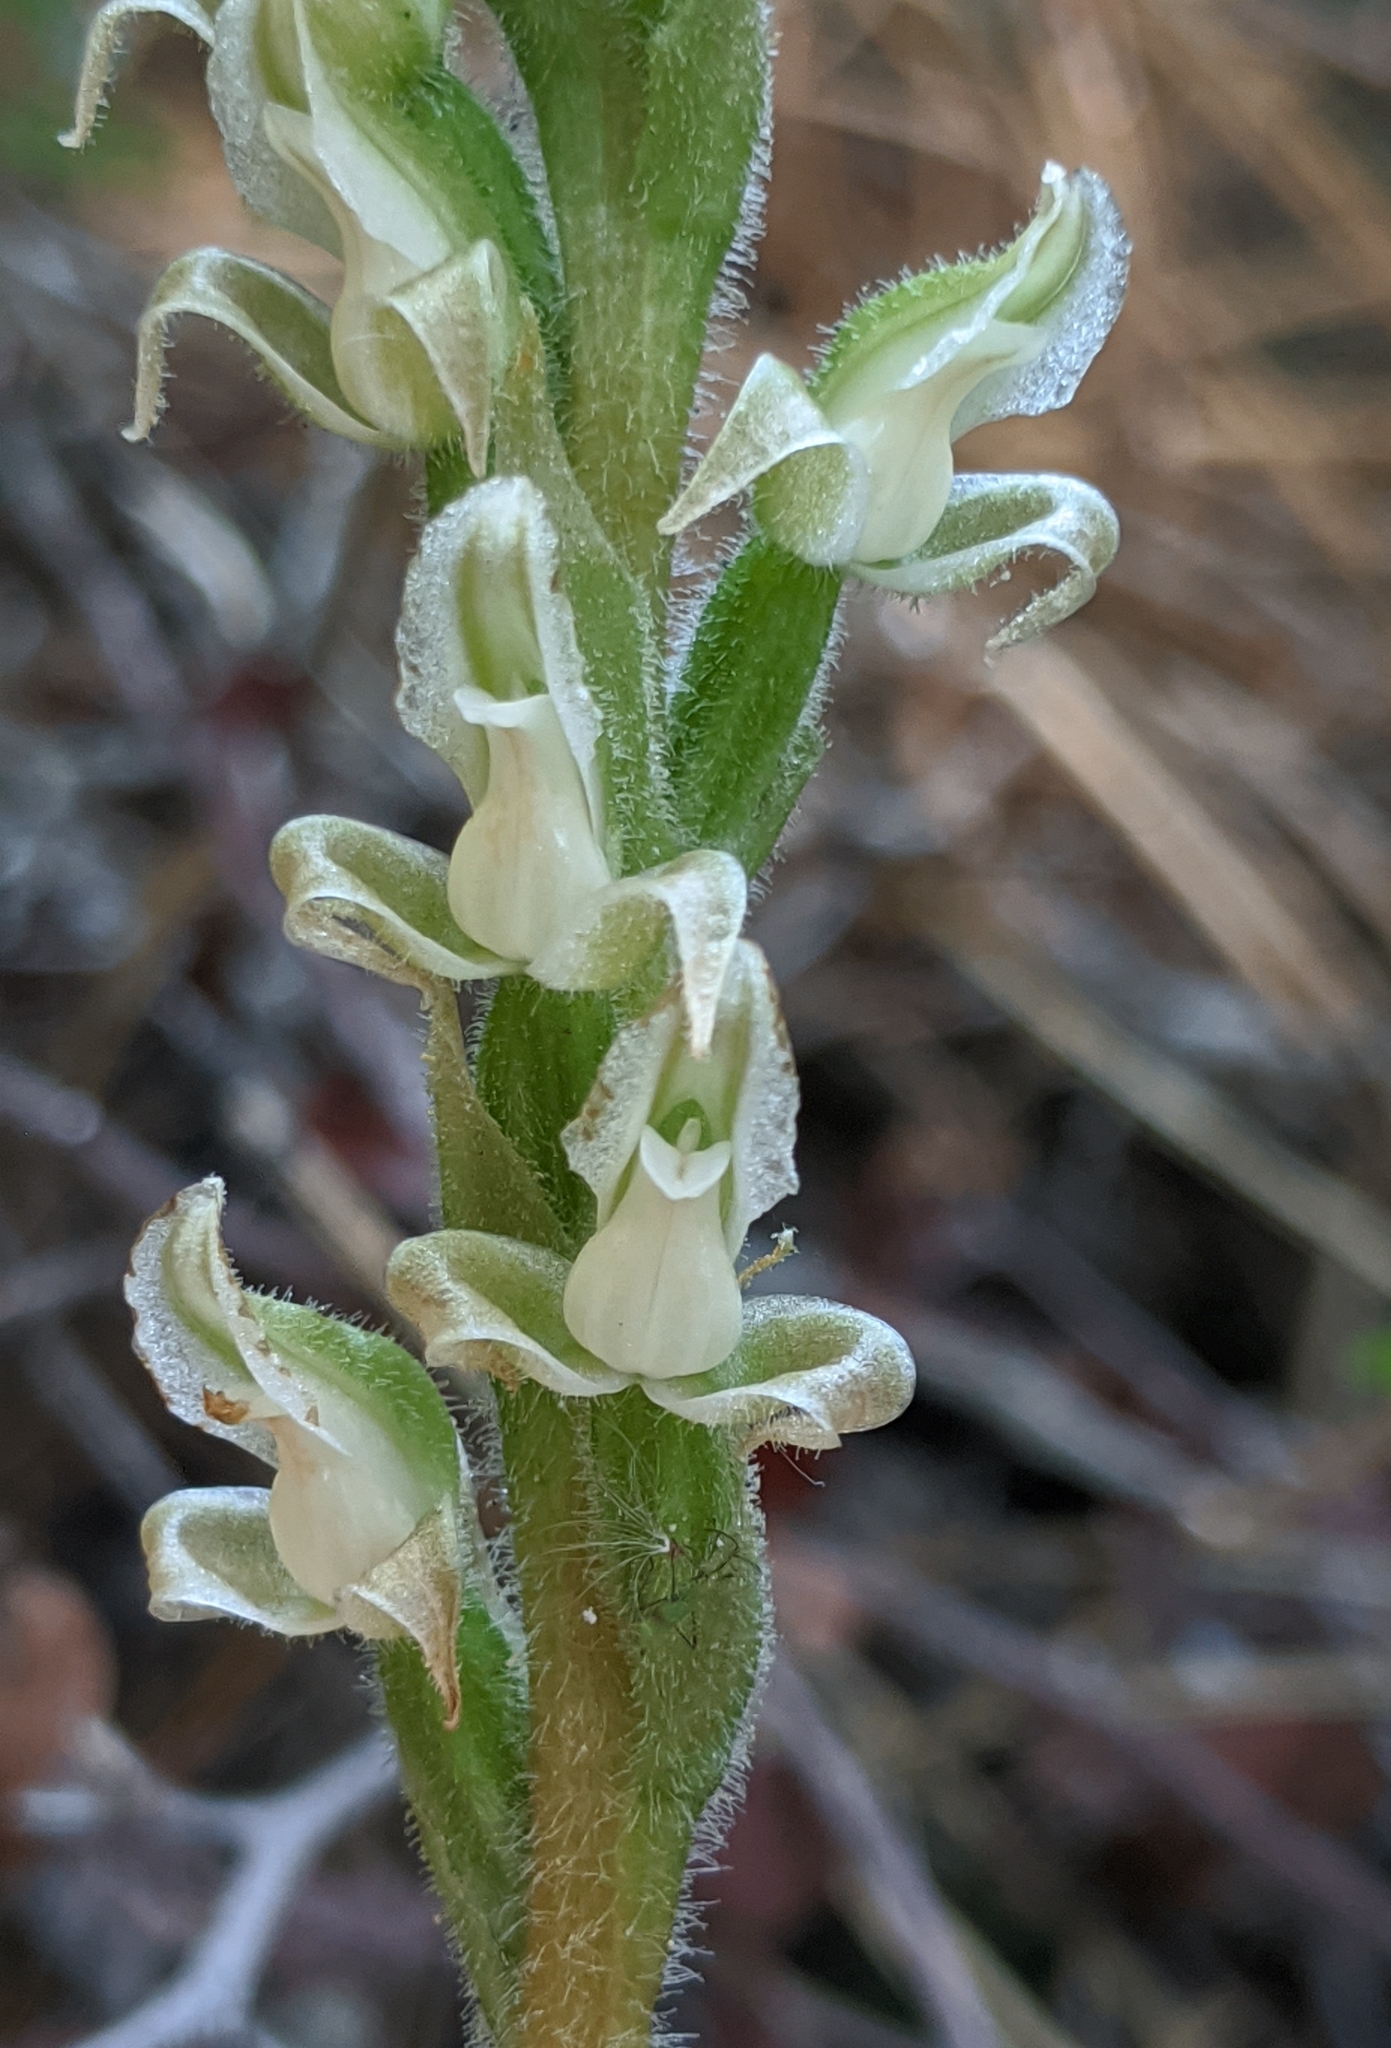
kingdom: Plantae
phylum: Tracheophyta
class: Liliopsida
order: Asparagales
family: Orchidaceae
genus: Goodyera
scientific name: Goodyera oblongifolia
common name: Giant rattlesnake-plantain
